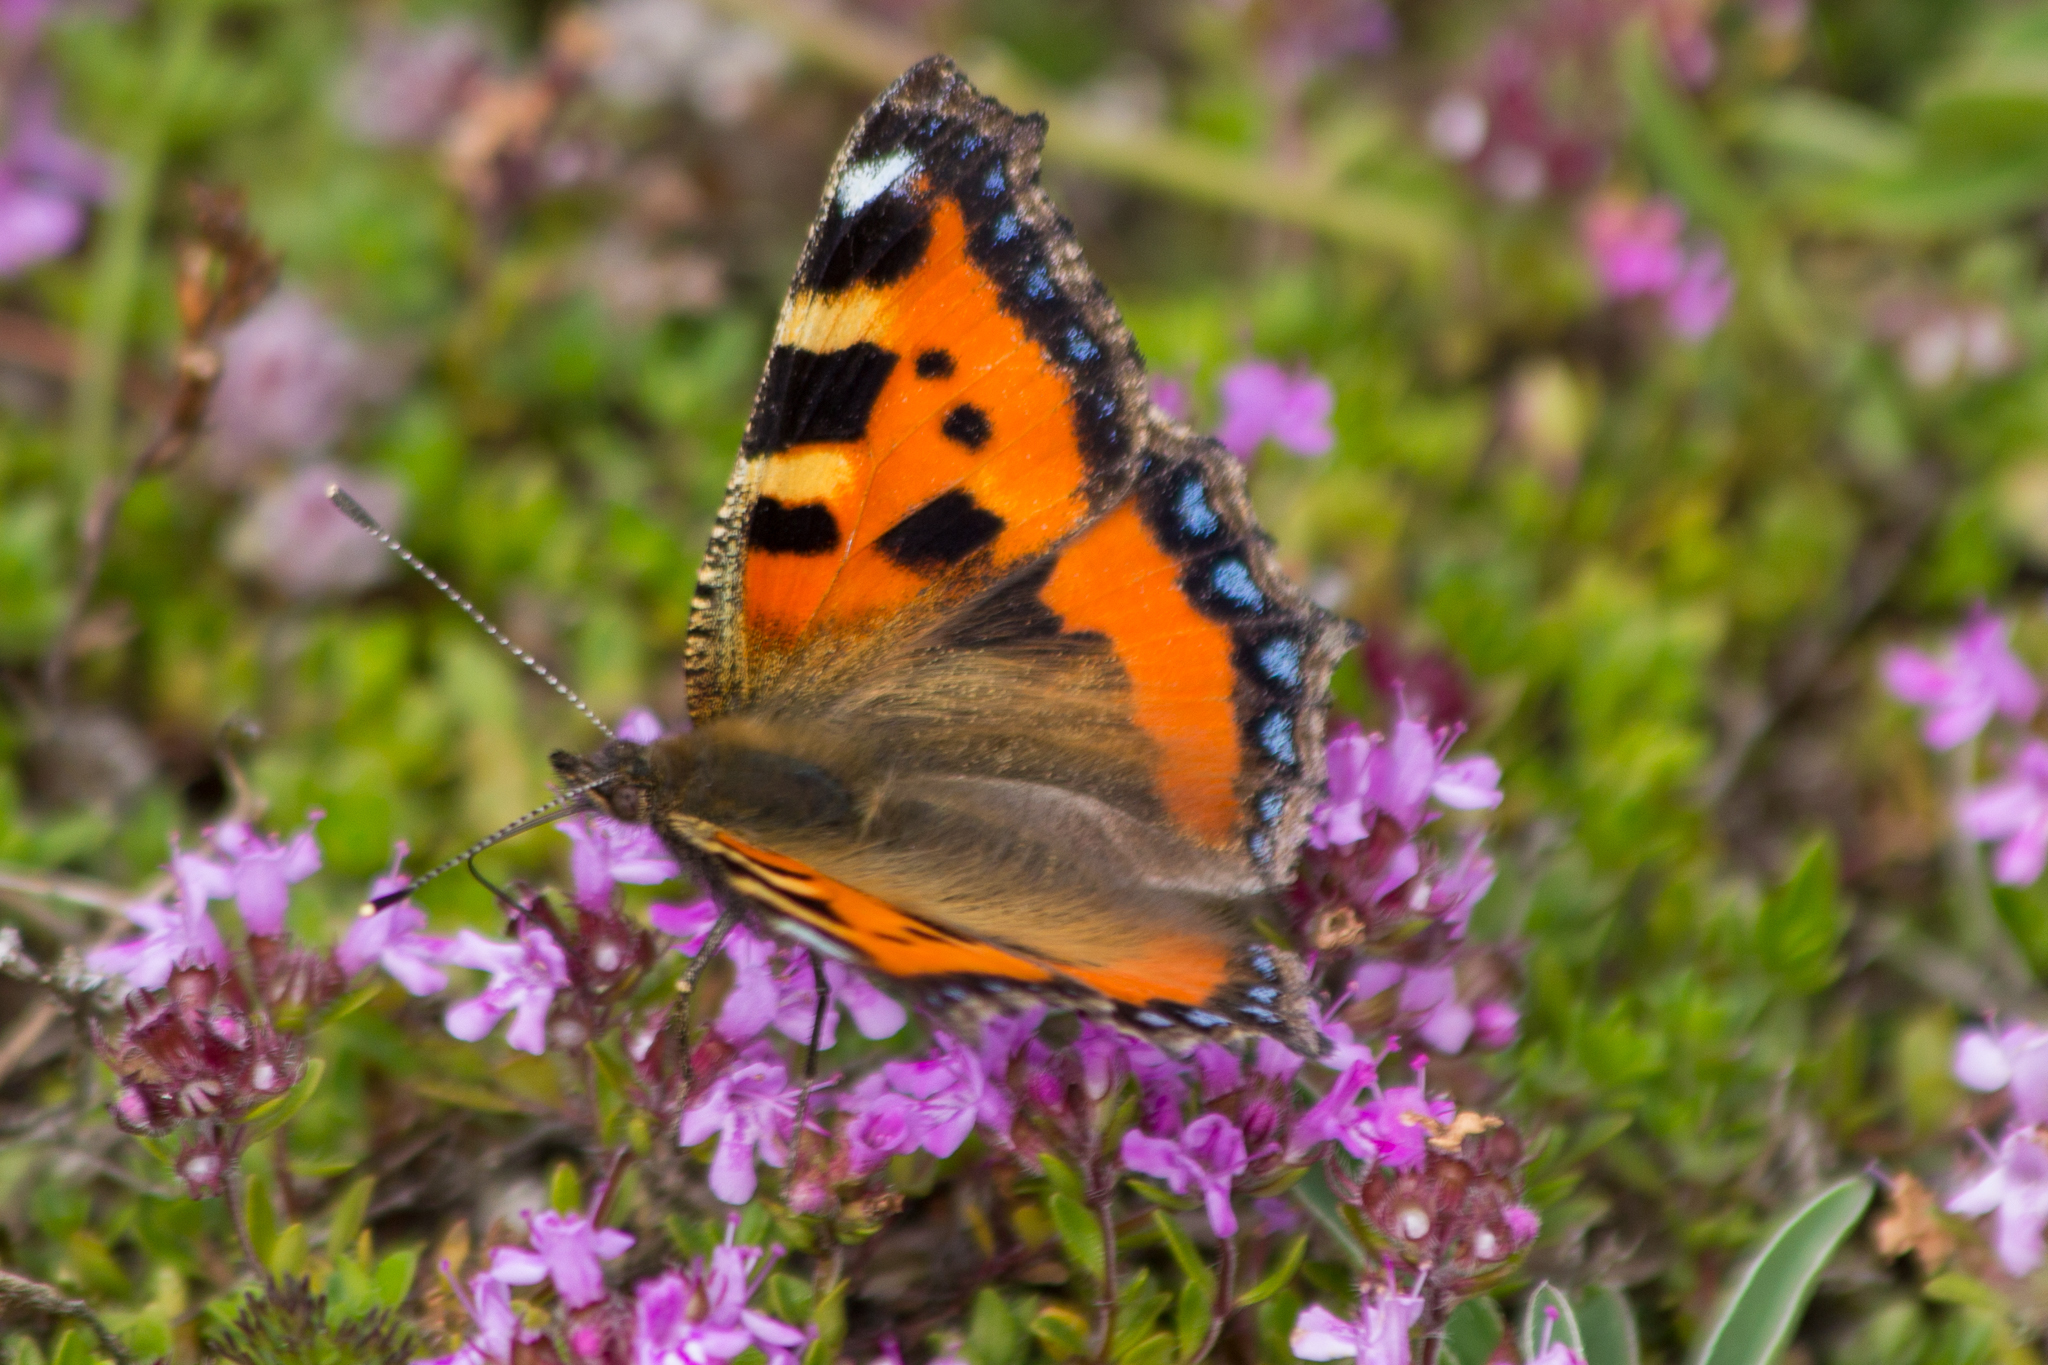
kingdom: Animalia
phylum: Arthropoda
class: Insecta
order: Lepidoptera
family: Nymphalidae
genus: Aglais
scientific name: Aglais urticae
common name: Small tortoiseshell
